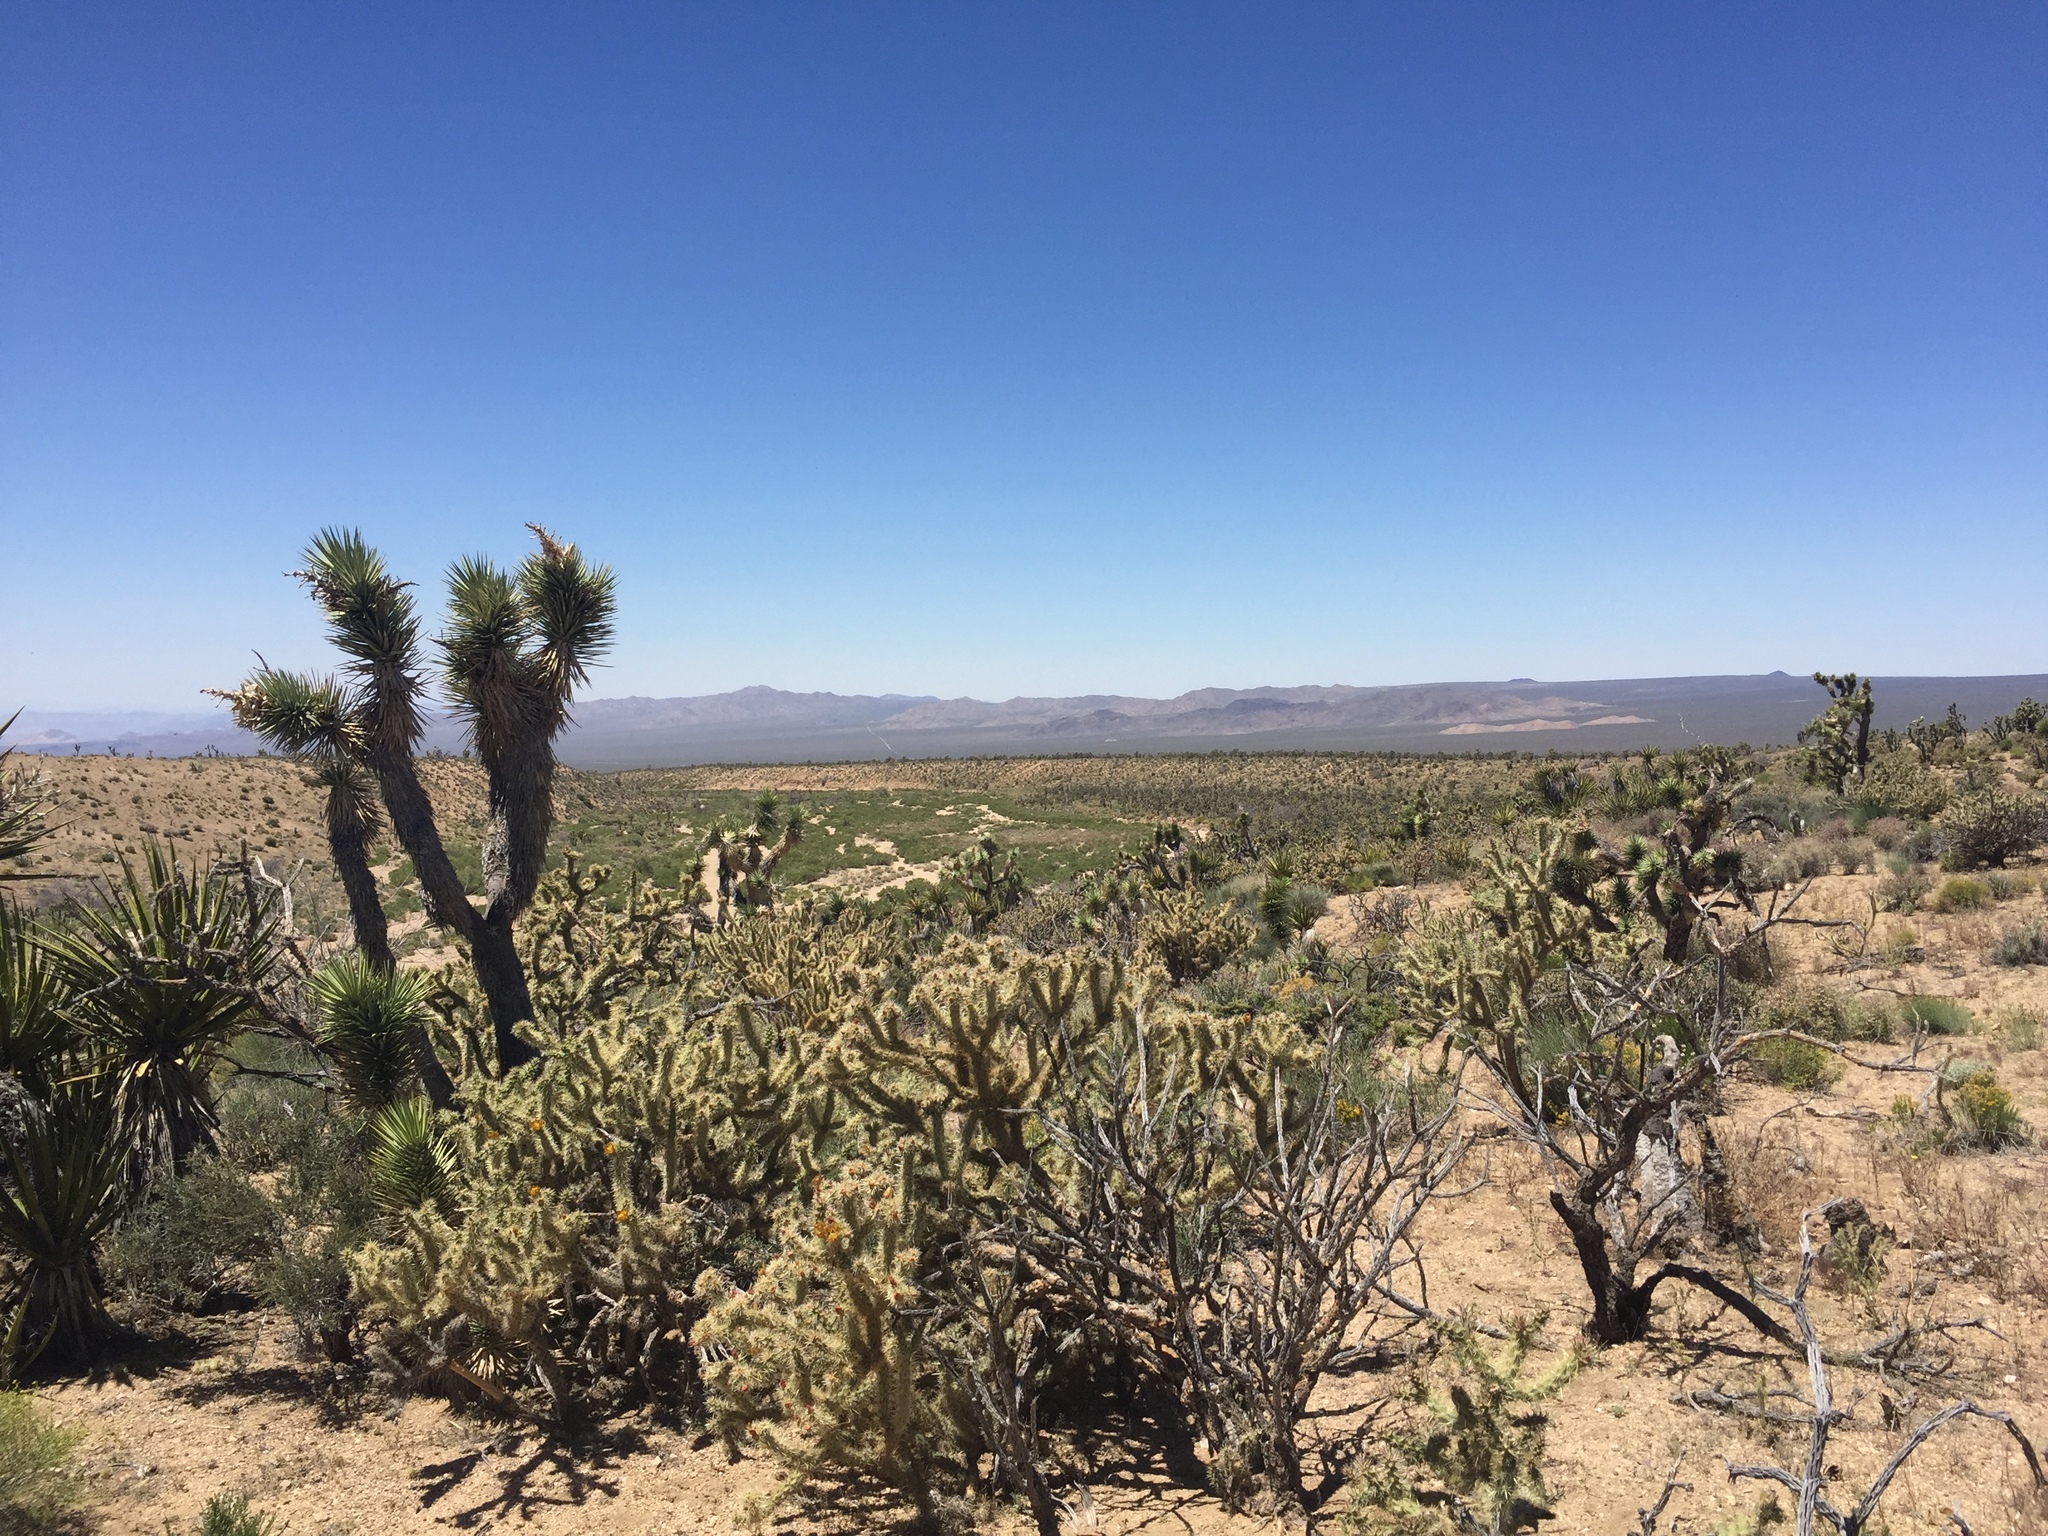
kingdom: Plantae
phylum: Tracheophyta
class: Liliopsida
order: Asparagales
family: Asparagaceae
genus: Yucca
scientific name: Yucca brevifolia
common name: Joshua tree
